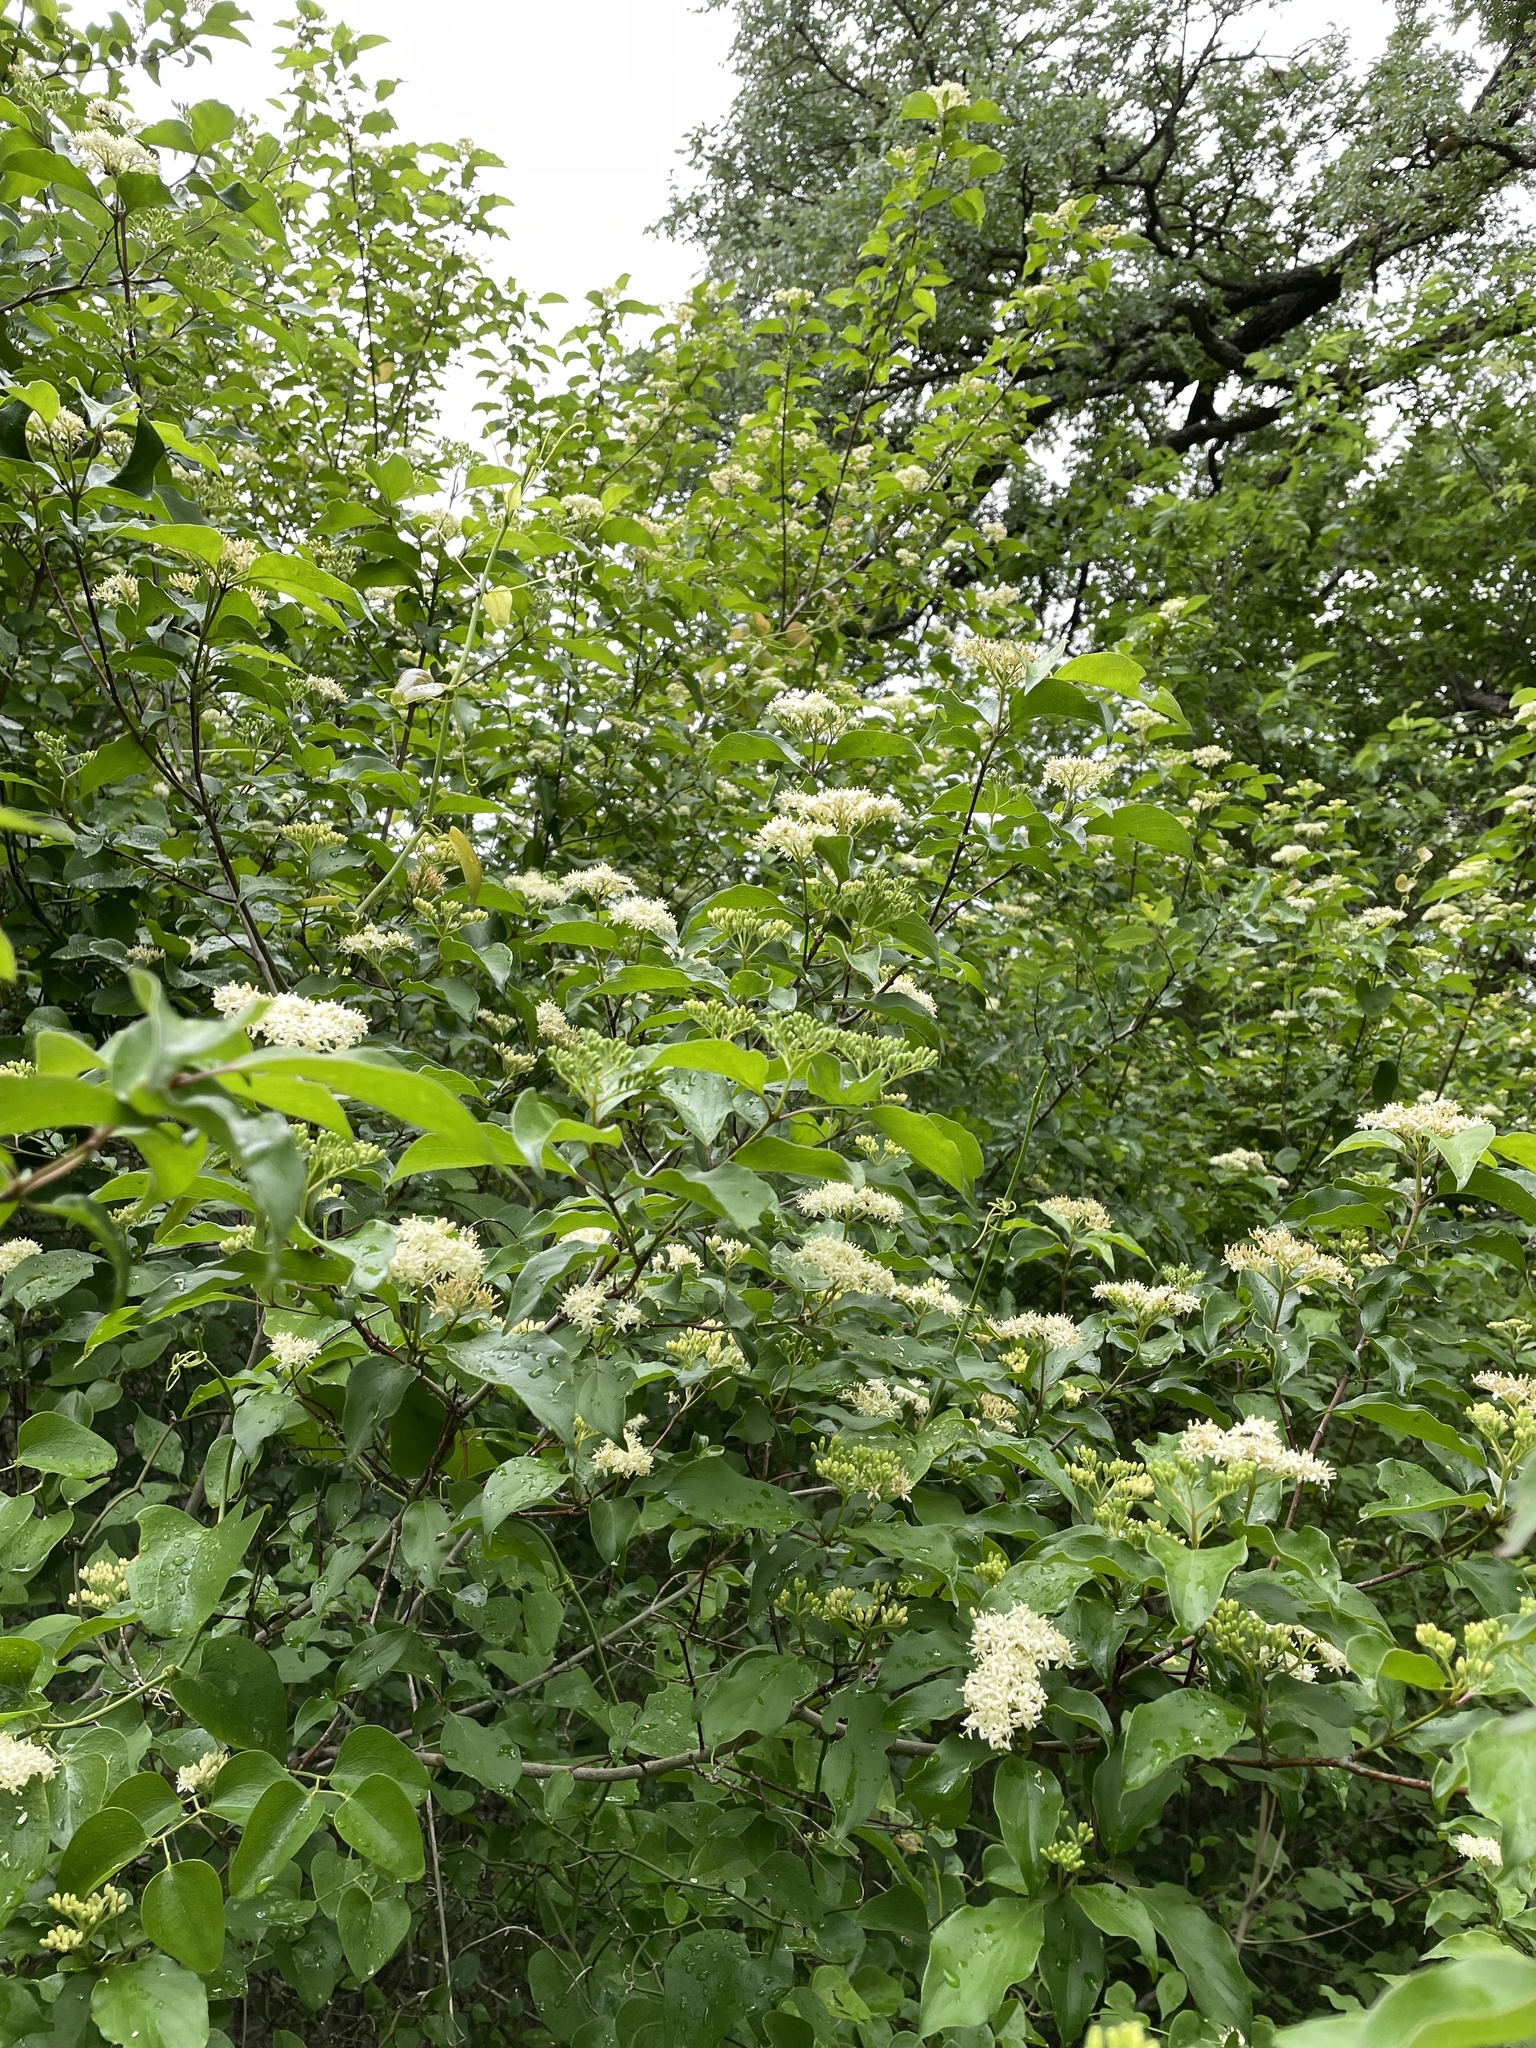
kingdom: Plantae
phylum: Tracheophyta
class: Magnoliopsida
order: Cornales
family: Cornaceae
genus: Cornus
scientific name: Cornus drummondii
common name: Rough-leaf dogwood
